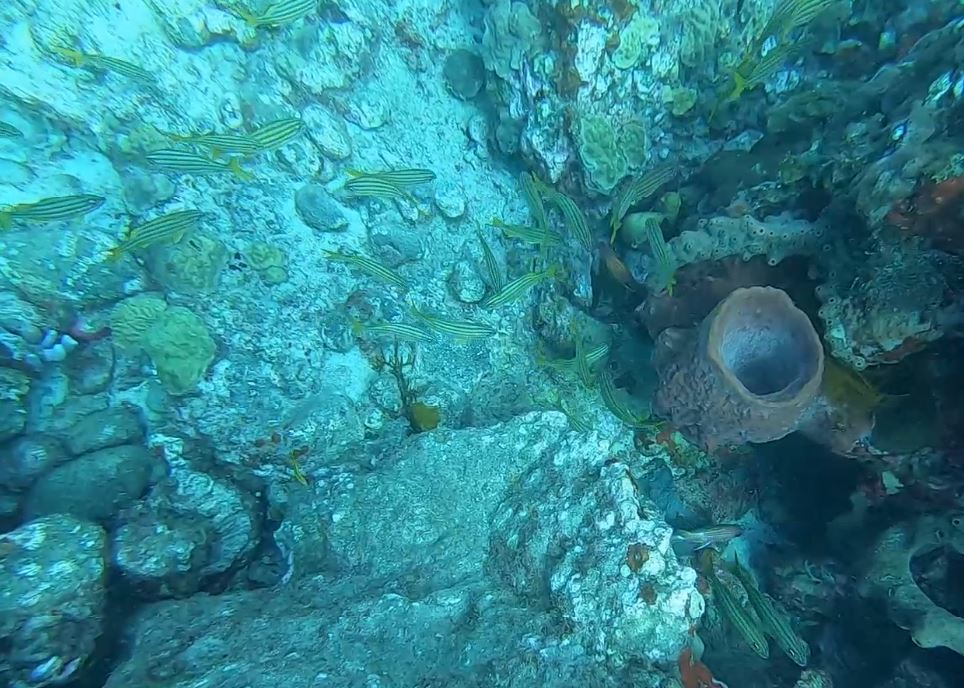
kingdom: Animalia
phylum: Chordata
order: Perciformes
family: Haemulidae
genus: Haemulon
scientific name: Haemulon chrysargyreum
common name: Smallmouth grunt
